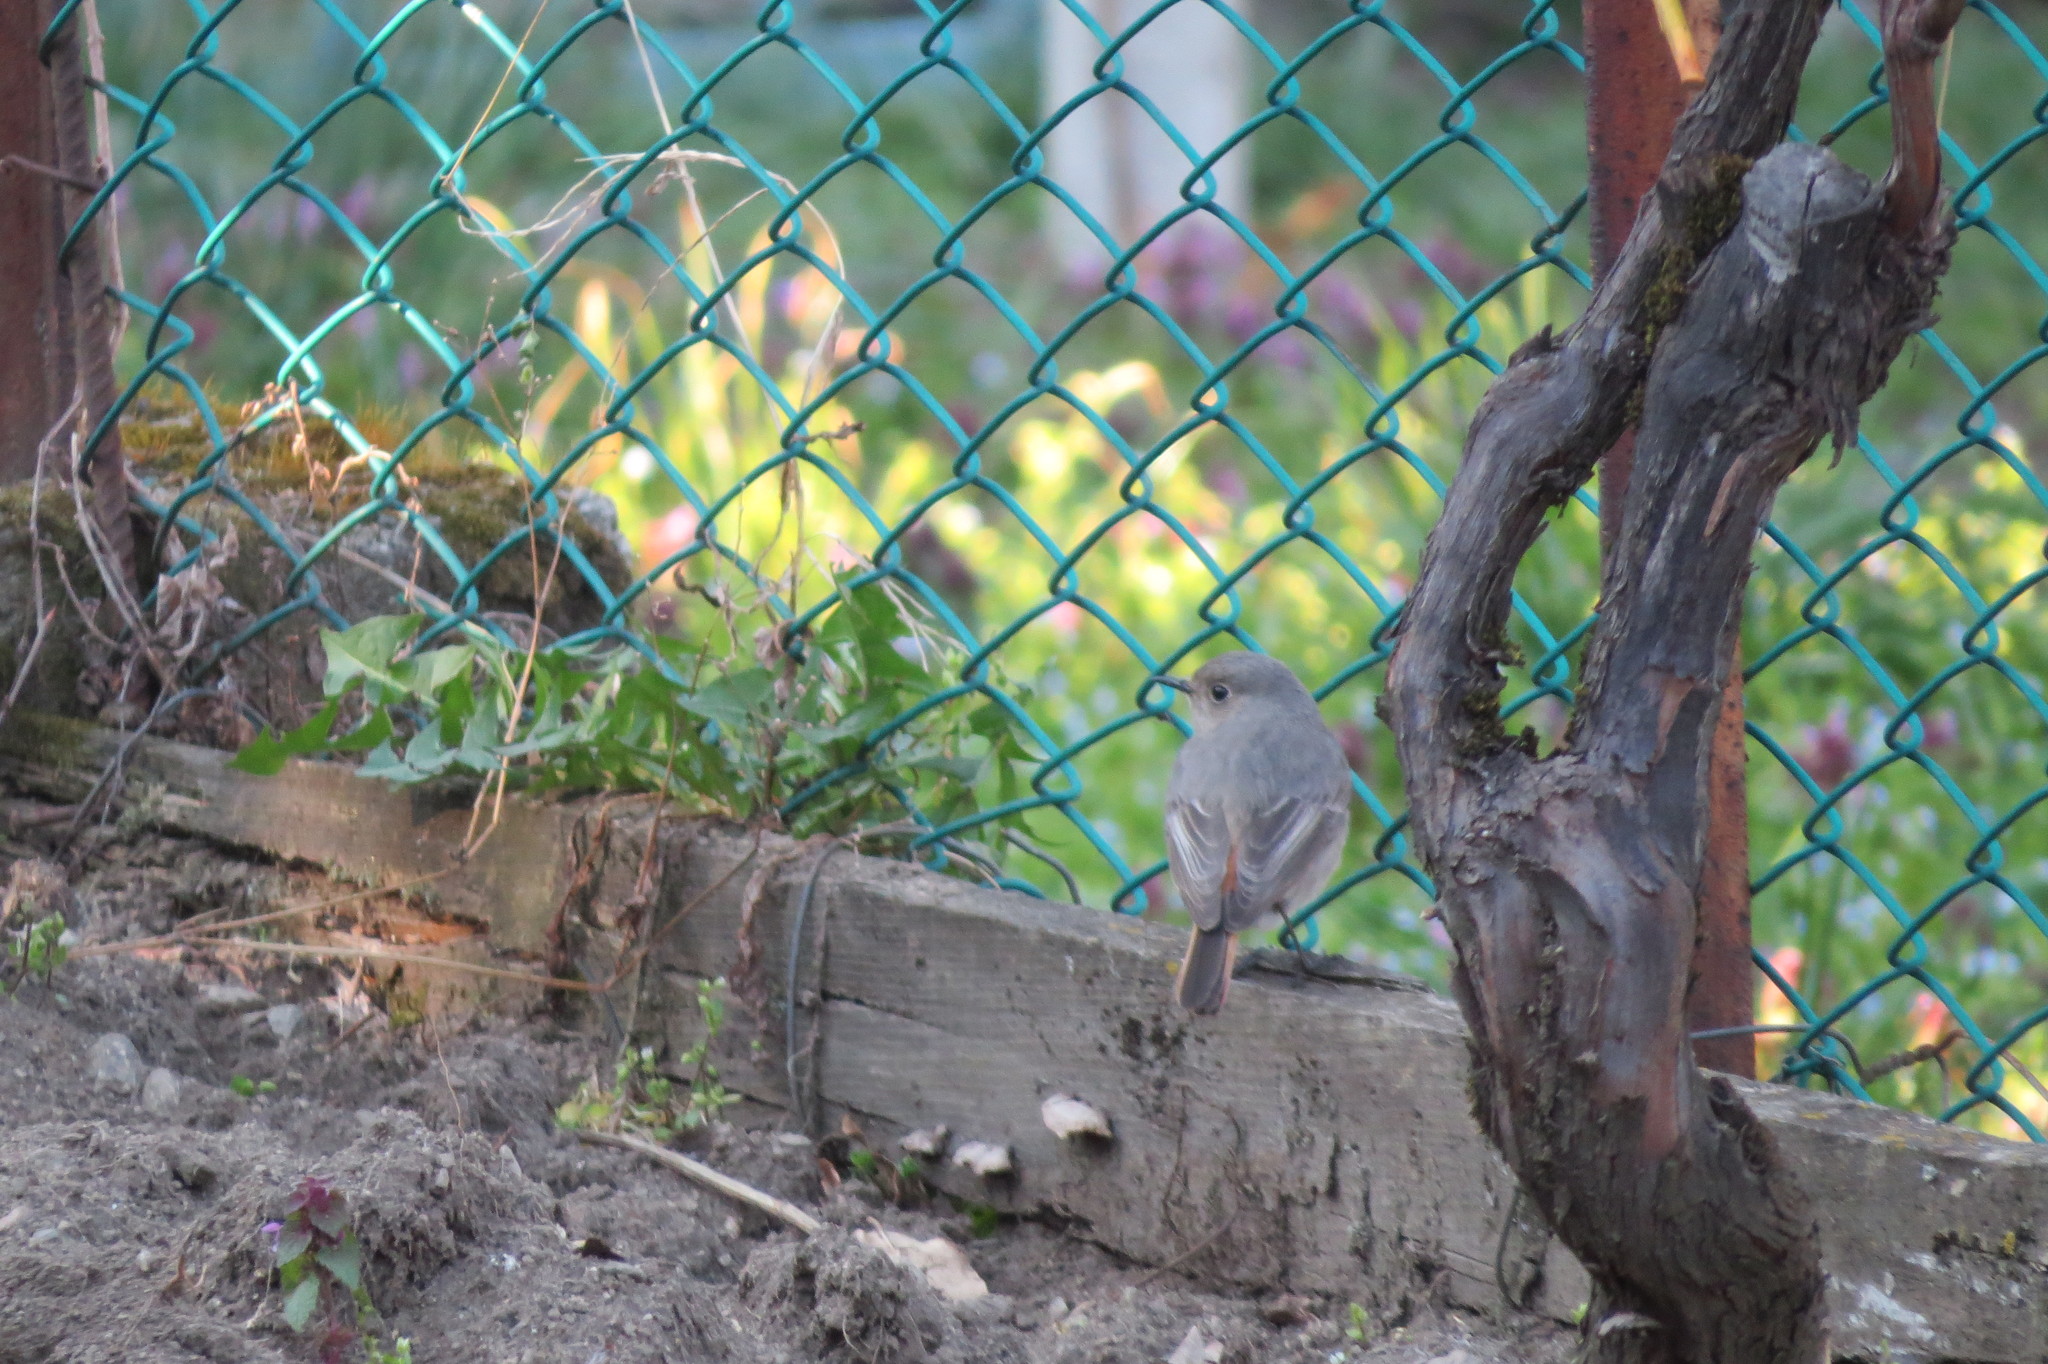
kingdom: Animalia
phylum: Chordata
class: Aves
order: Passeriformes
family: Muscicapidae
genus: Phoenicurus
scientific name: Phoenicurus ochruros
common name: Black redstart
